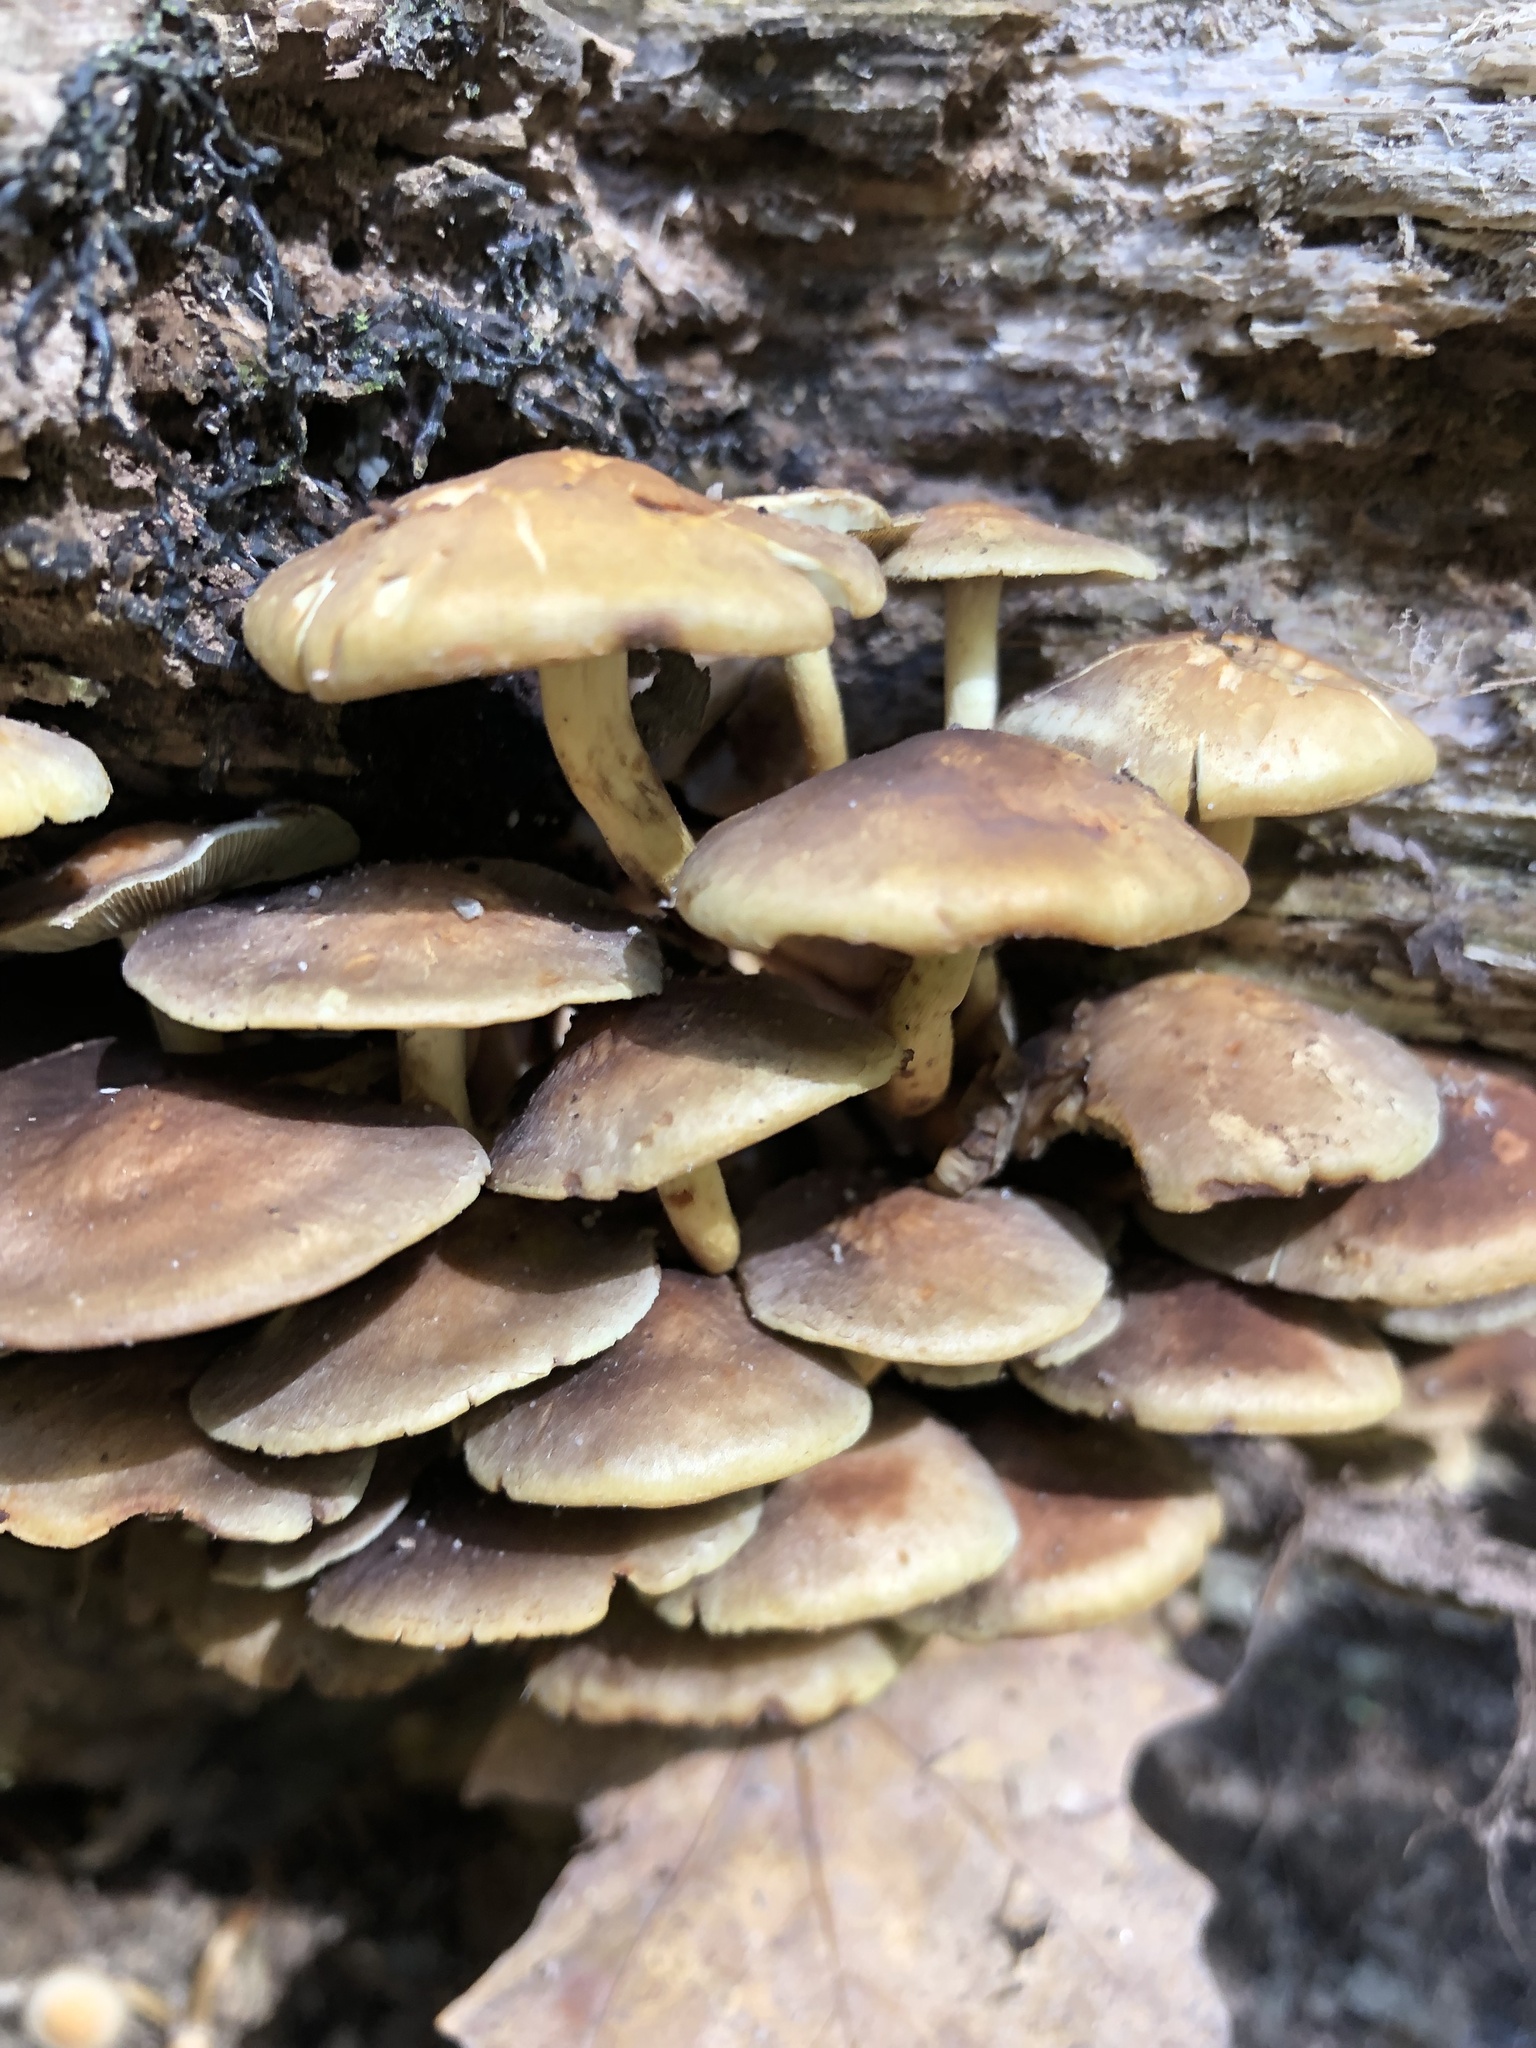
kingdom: Fungi
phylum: Basidiomycota
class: Agaricomycetes
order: Agaricales
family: Strophariaceae
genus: Hypholoma
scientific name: Hypholoma fasciculare
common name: Sulphur tuft
